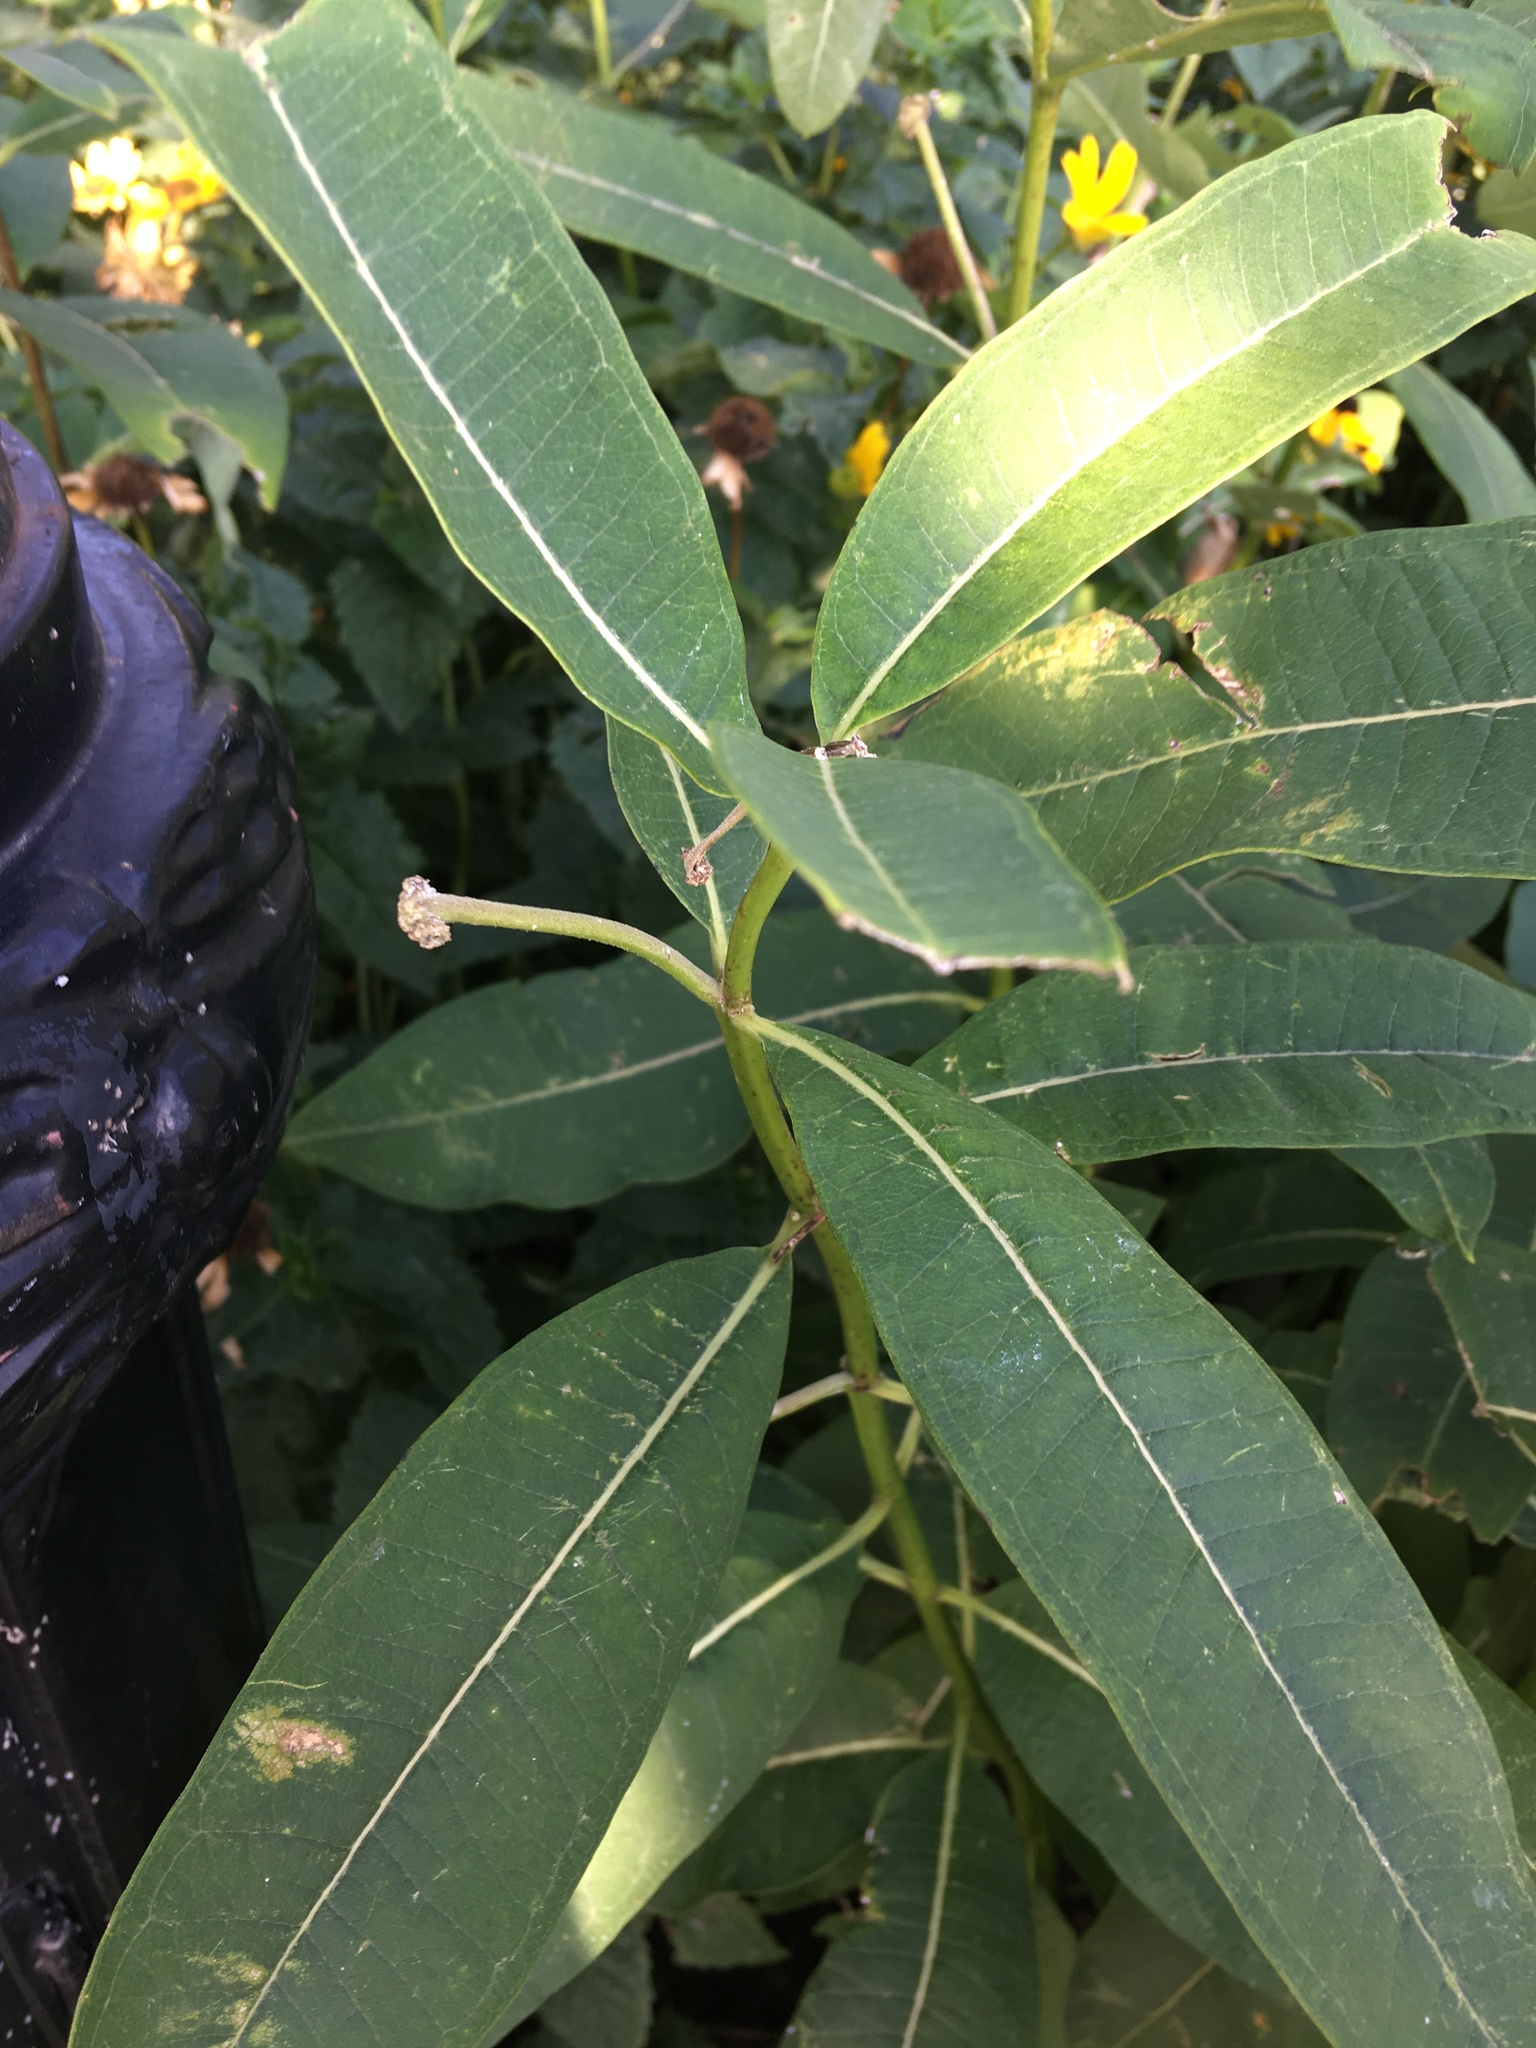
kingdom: Plantae
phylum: Tracheophyta
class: Magnoliopsida
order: Gentianales
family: Apocynaceae
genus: Asclepias
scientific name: Asclepias syriaca
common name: Common milkweed
